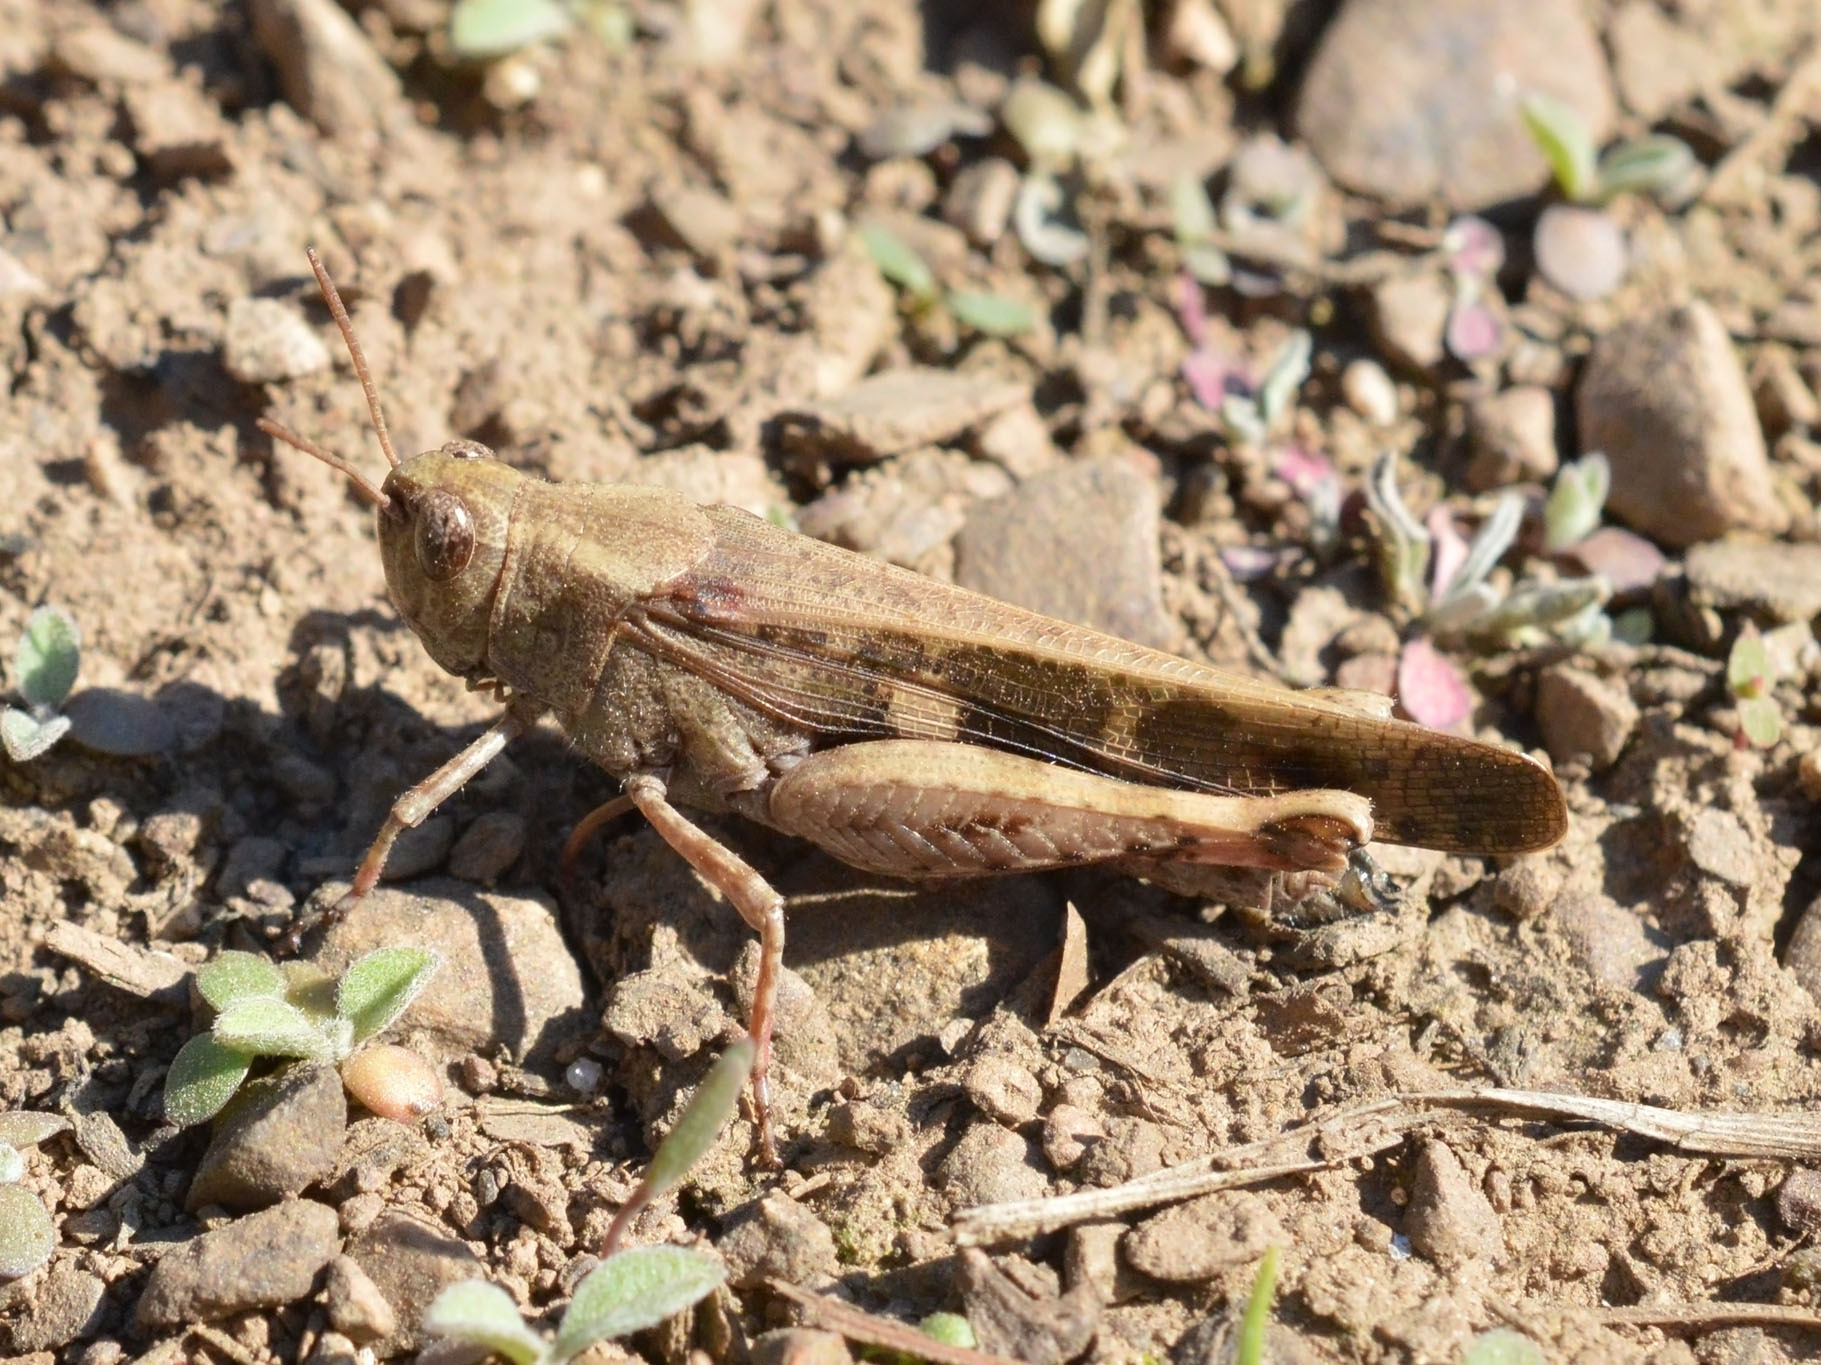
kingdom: Animalia
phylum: Arthropoda
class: Insecta
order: Orthoptera
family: Acrididae
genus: Aiolopus
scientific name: Aiolopus strepens
